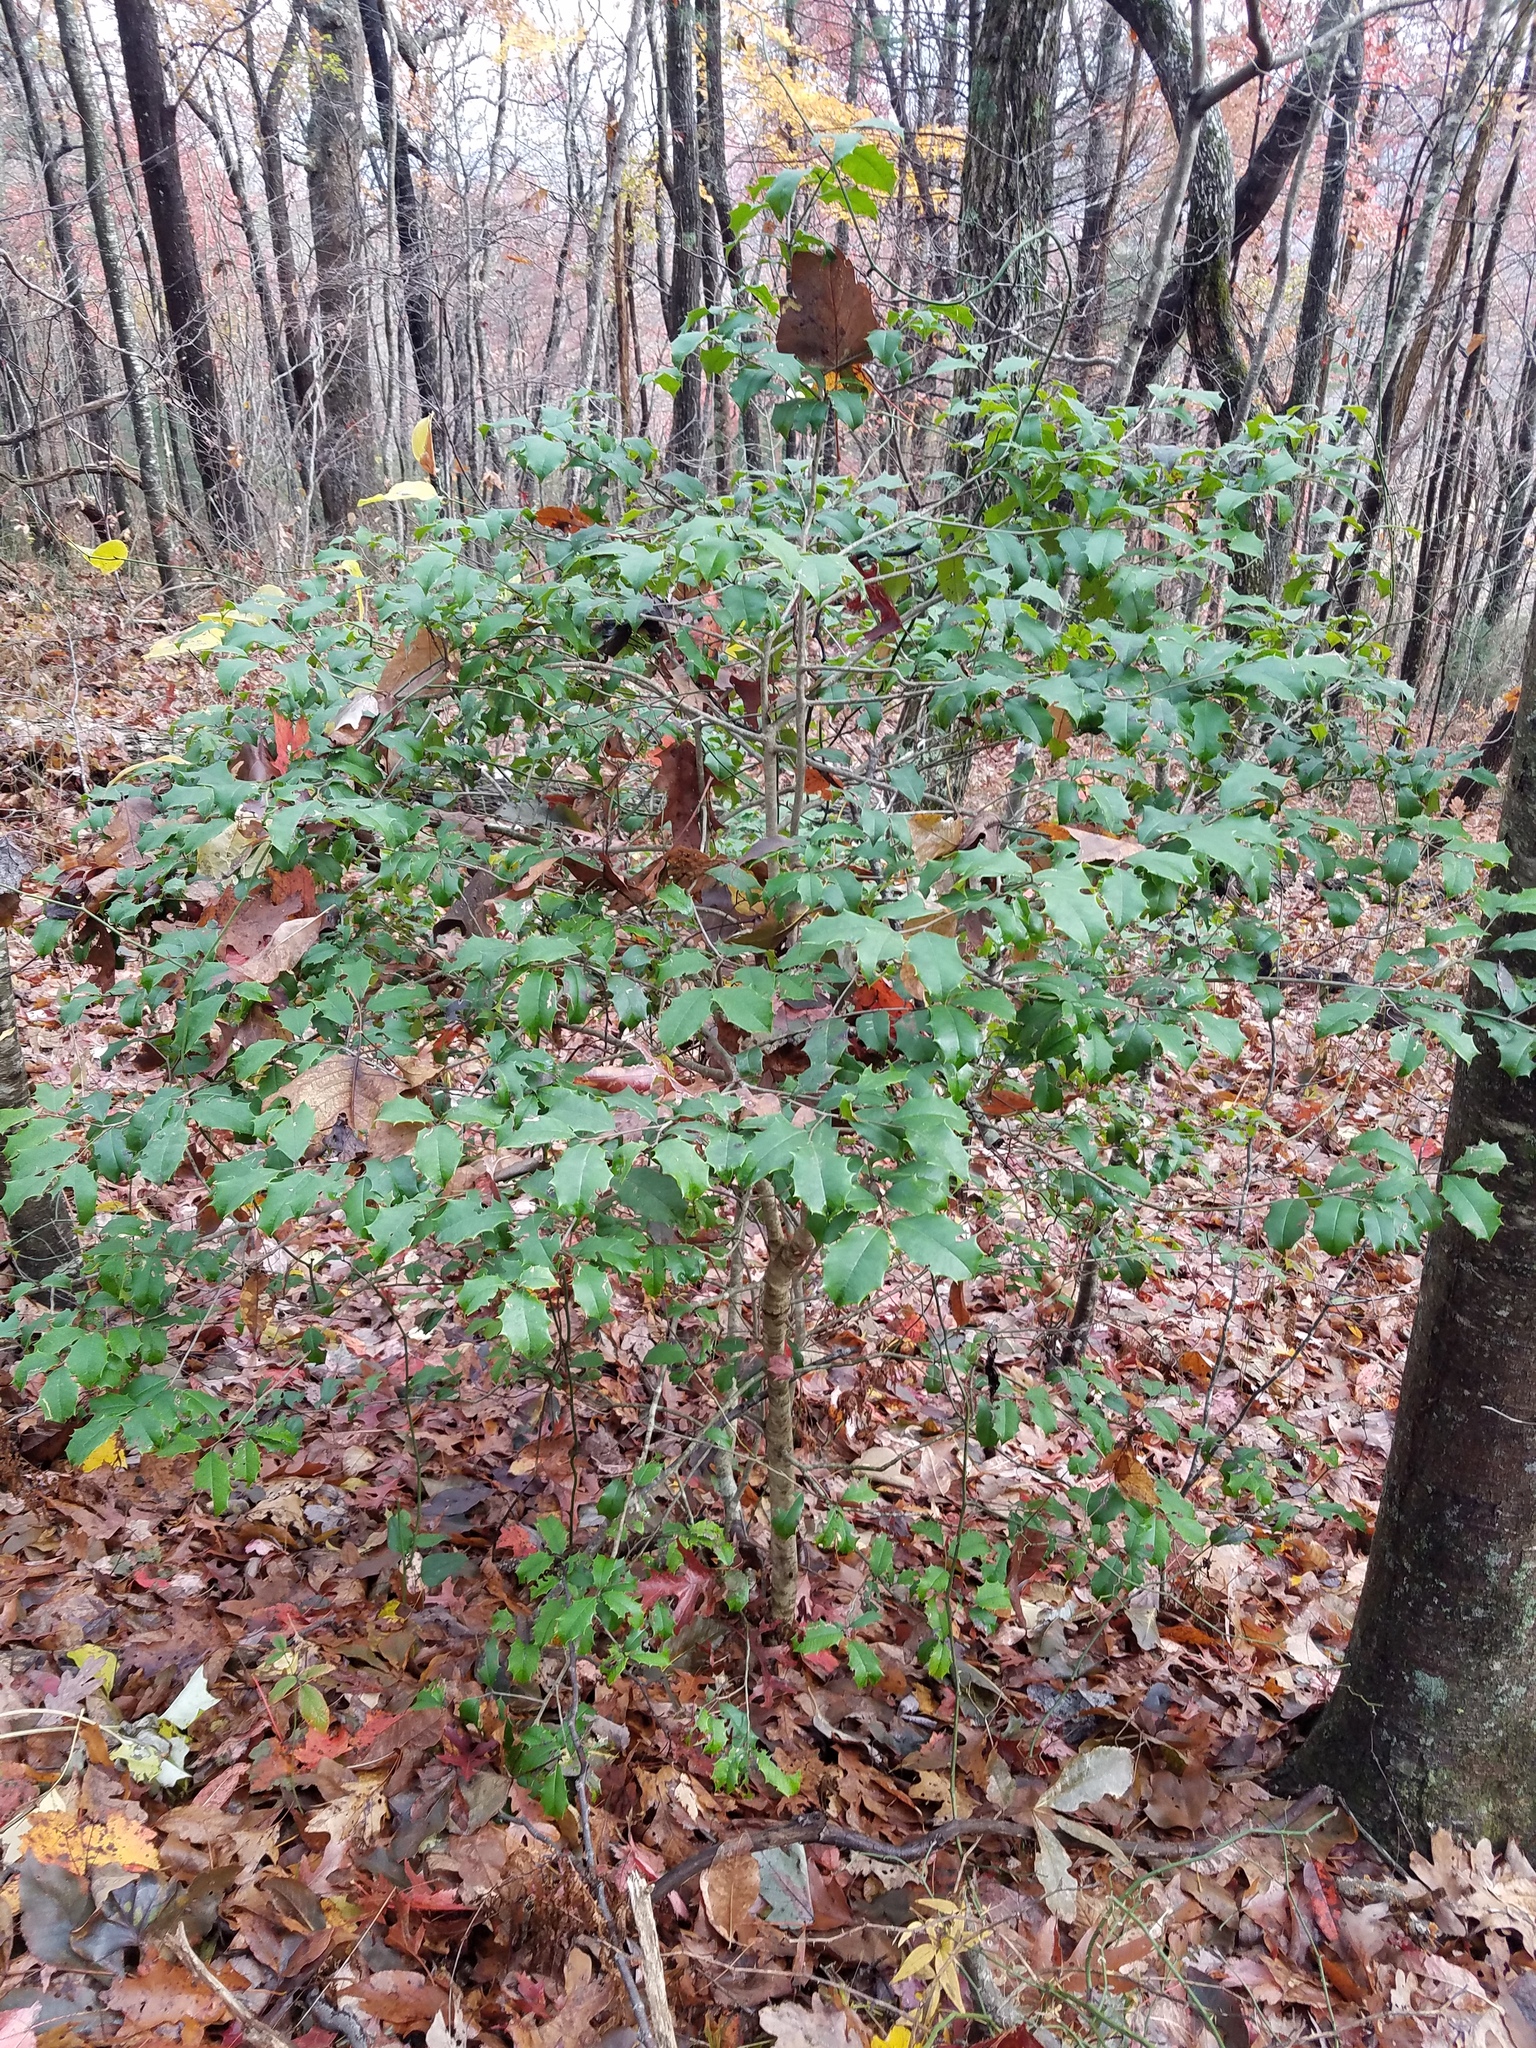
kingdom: Plantae
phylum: Tracheophyta
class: Magnoliopsida
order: Aquifoliales
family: Aquifoliaceae
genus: Ilex
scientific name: Ilex opaca
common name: American holly
